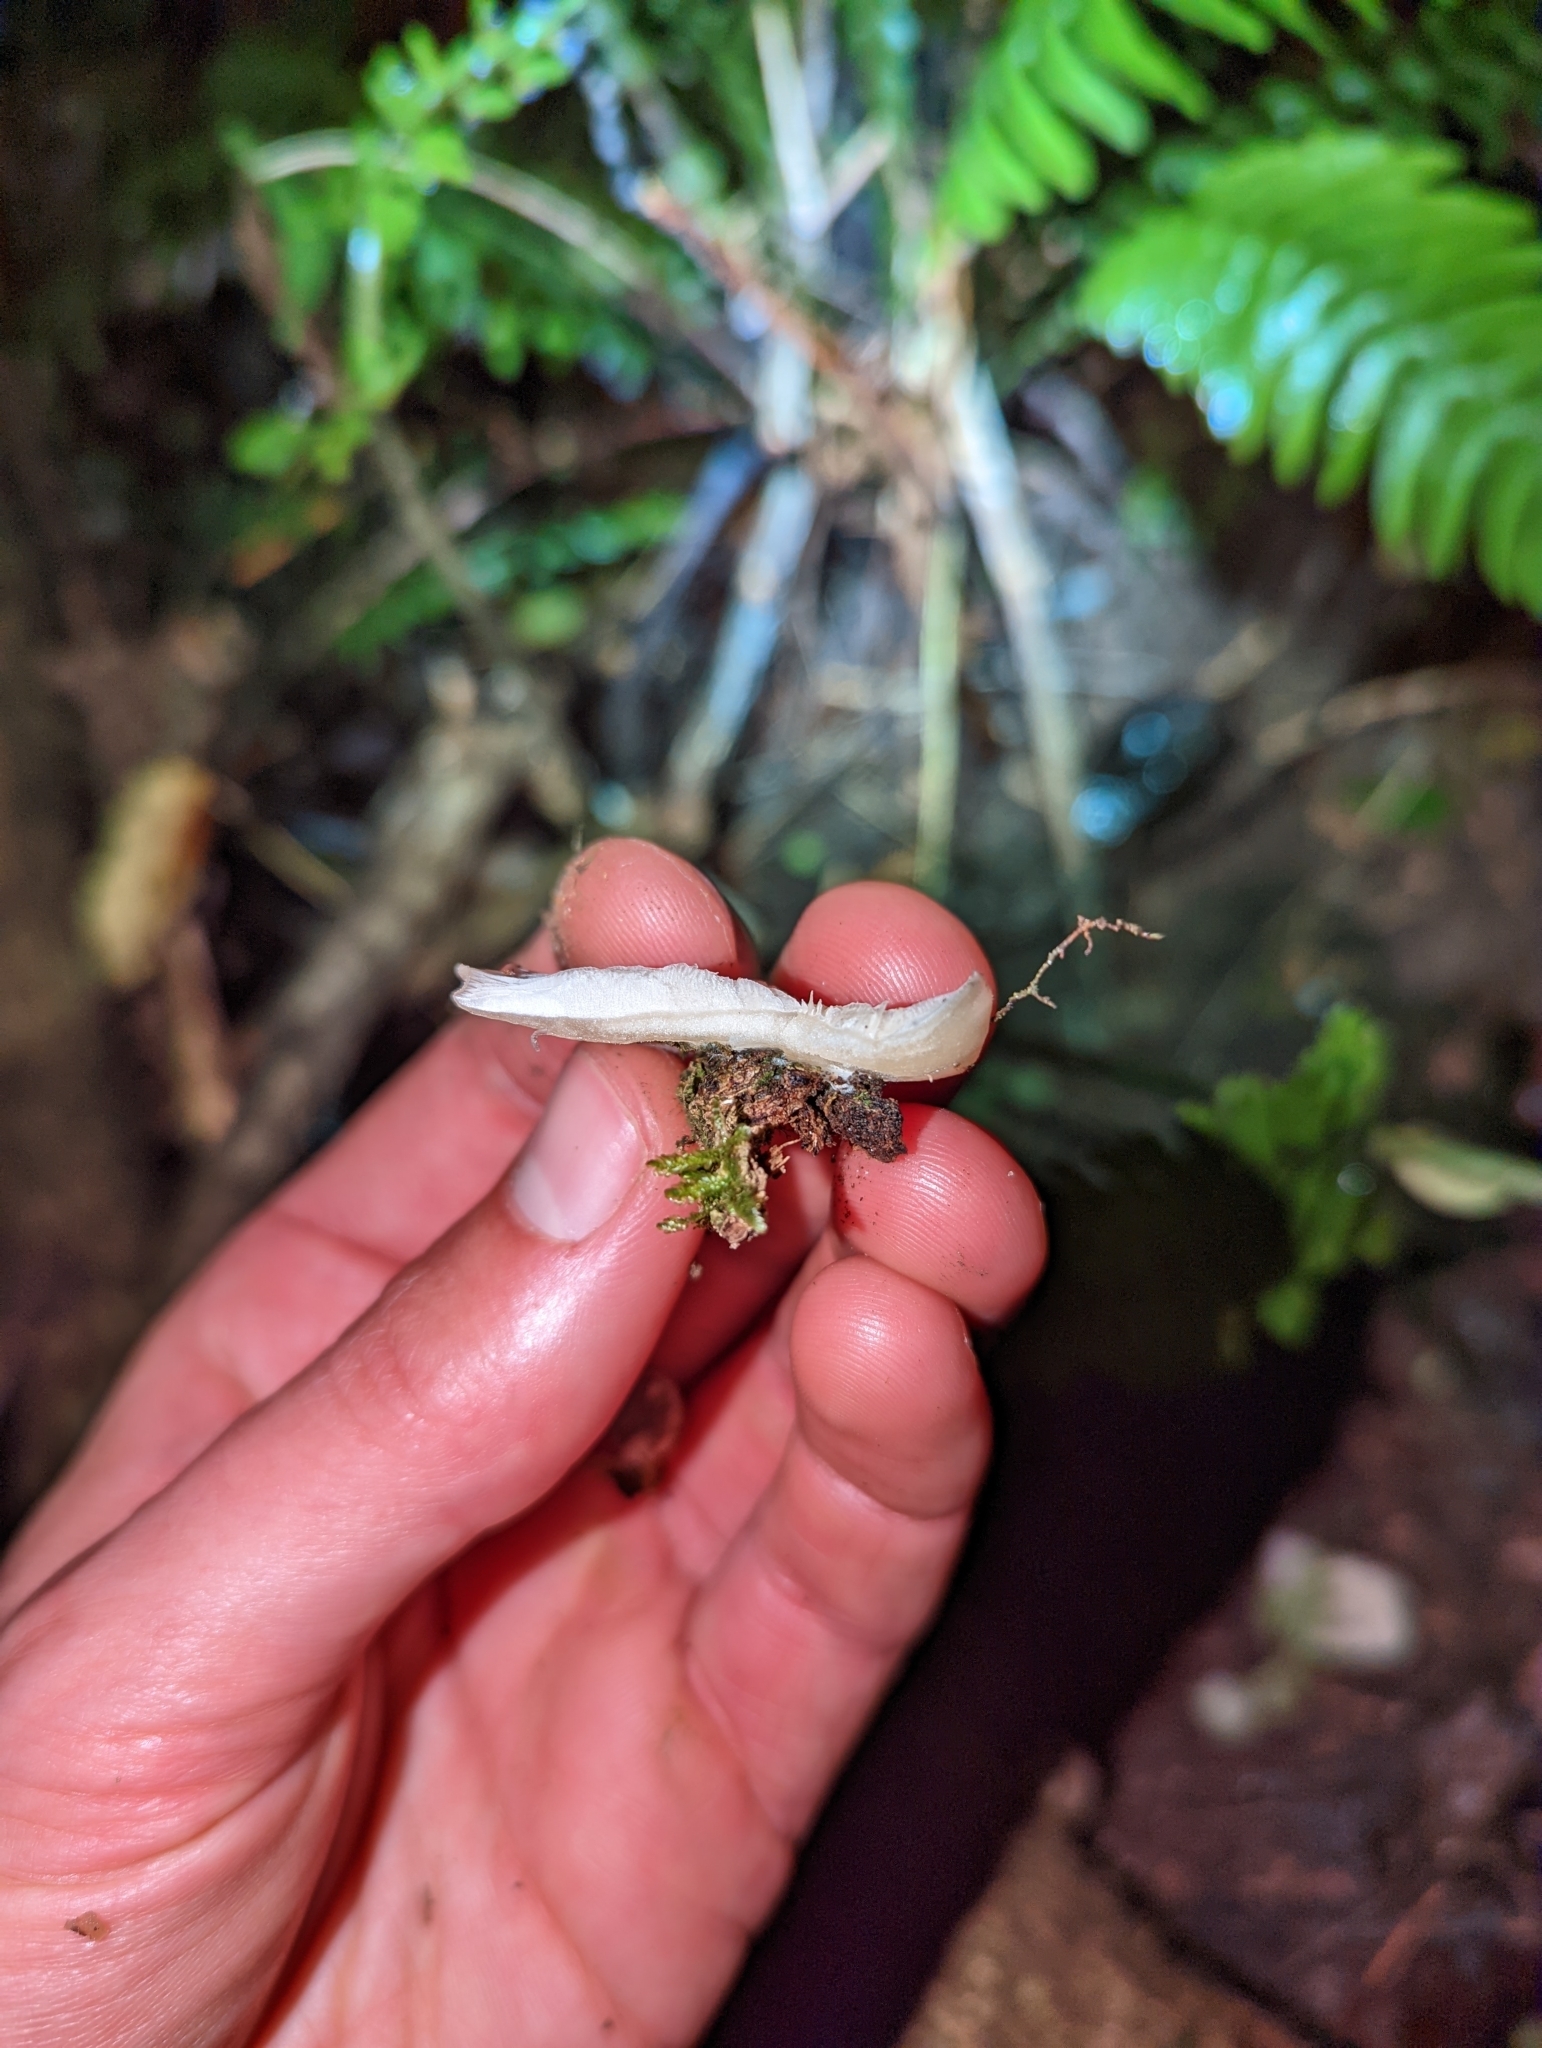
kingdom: Fungi
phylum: Basidiomycota
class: Agaricomycetes
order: Agaricales
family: Tricholomataceae
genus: Conchomyces
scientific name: Conchomyces bursiformis
